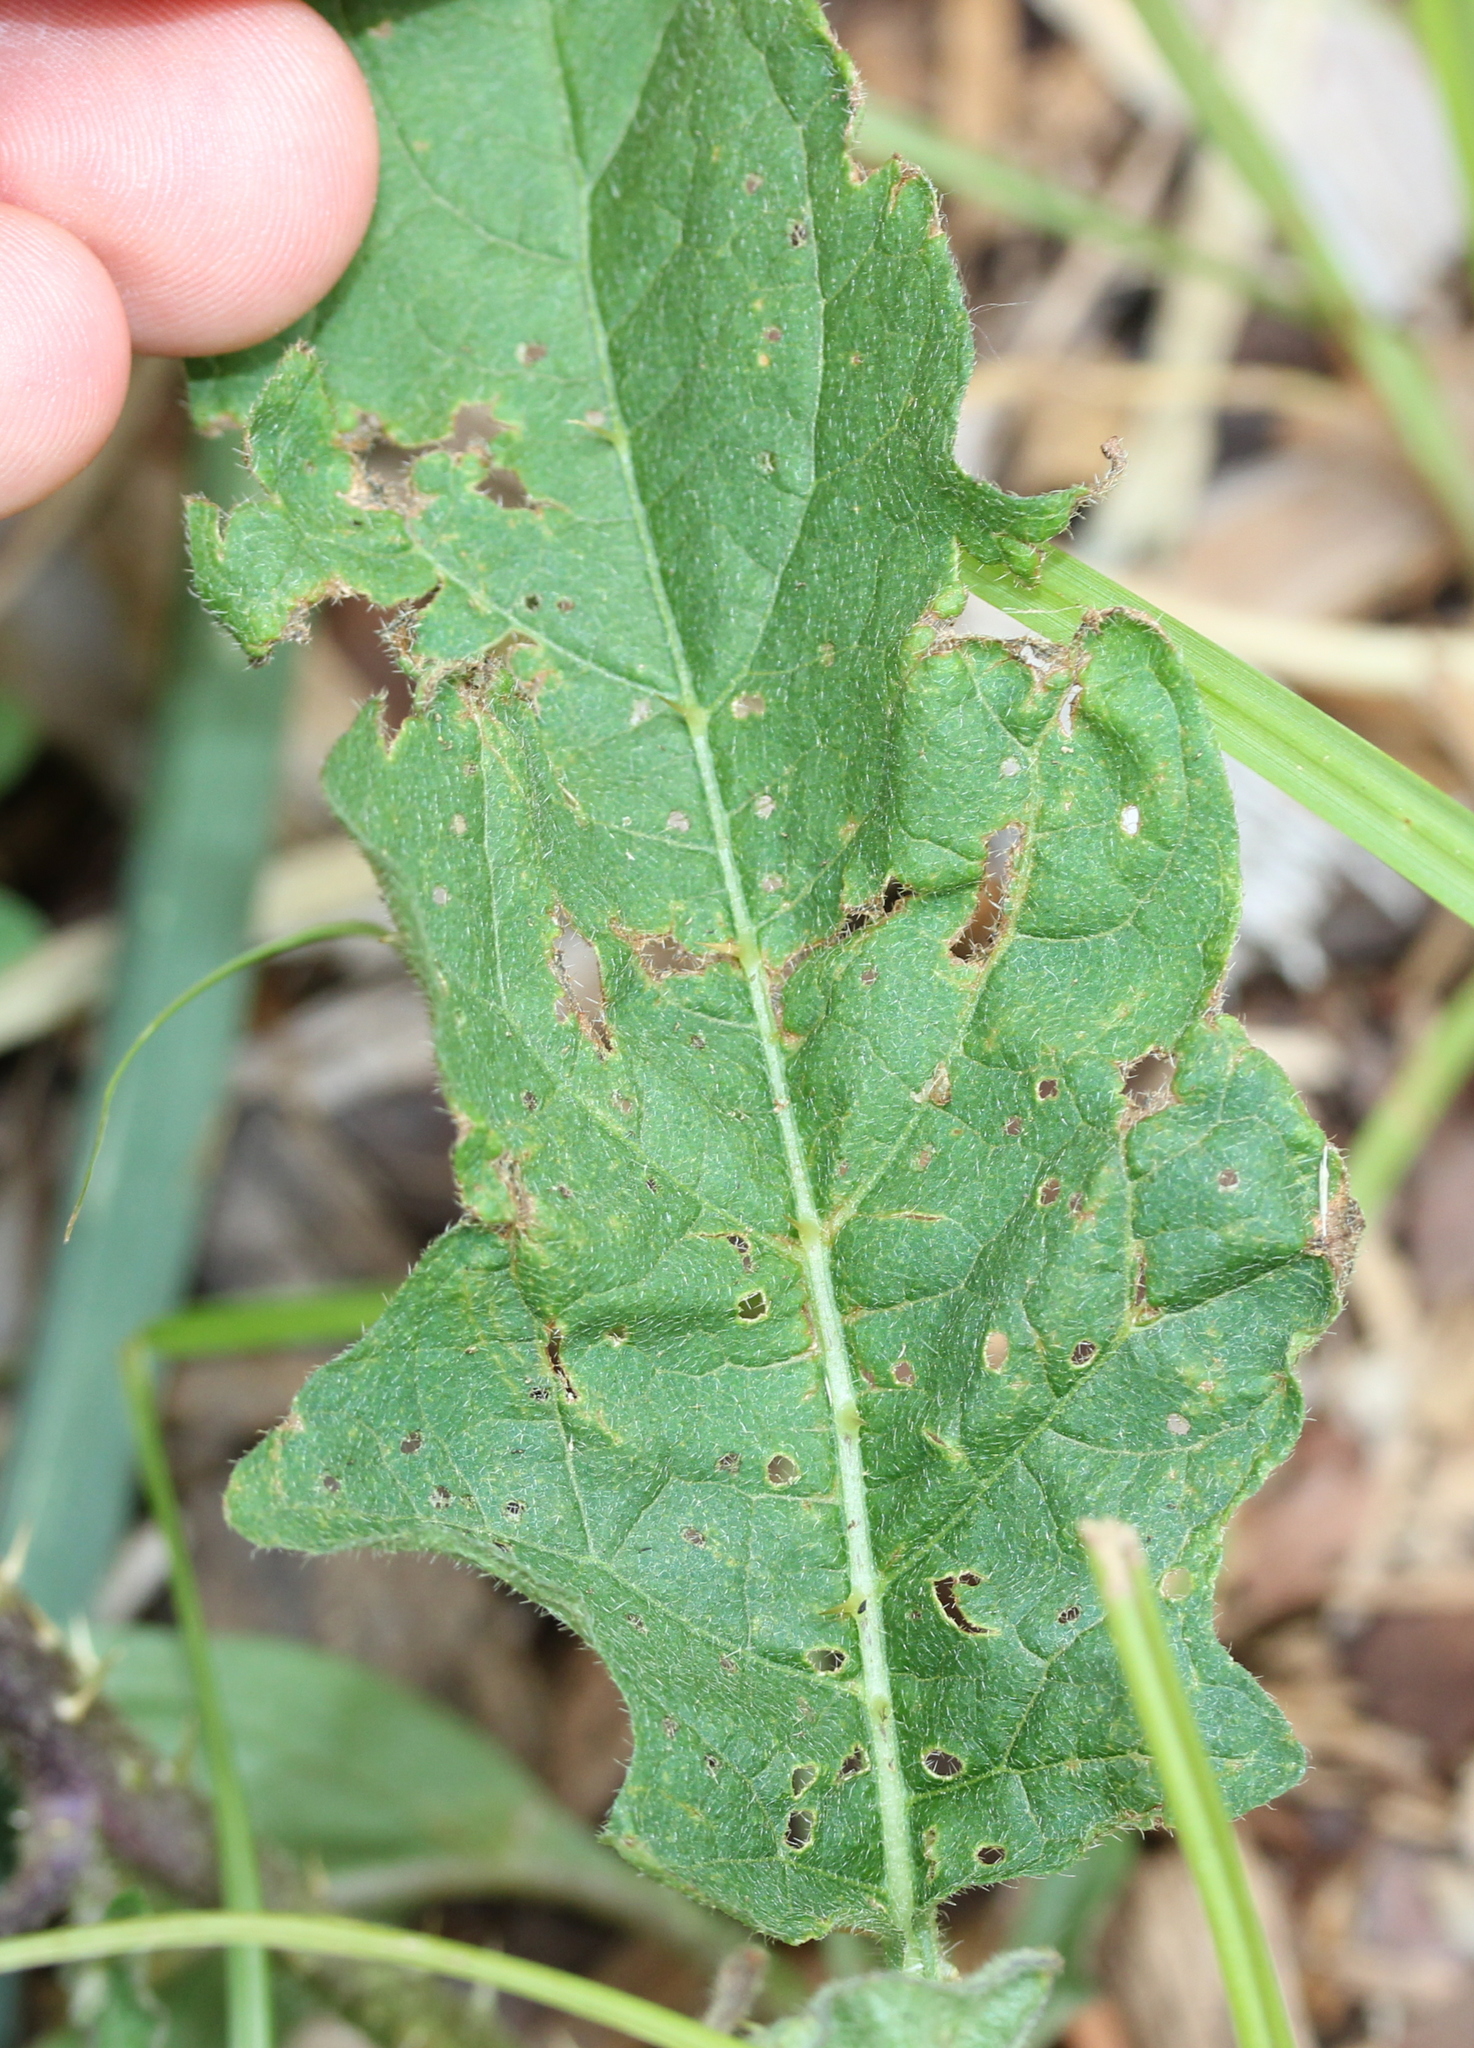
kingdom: Plantae
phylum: Tracheophyta
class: Magnoliopsida
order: Solanales
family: Solanaceae
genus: Solanum
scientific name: Solanum carolinense
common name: Horse-nettle
